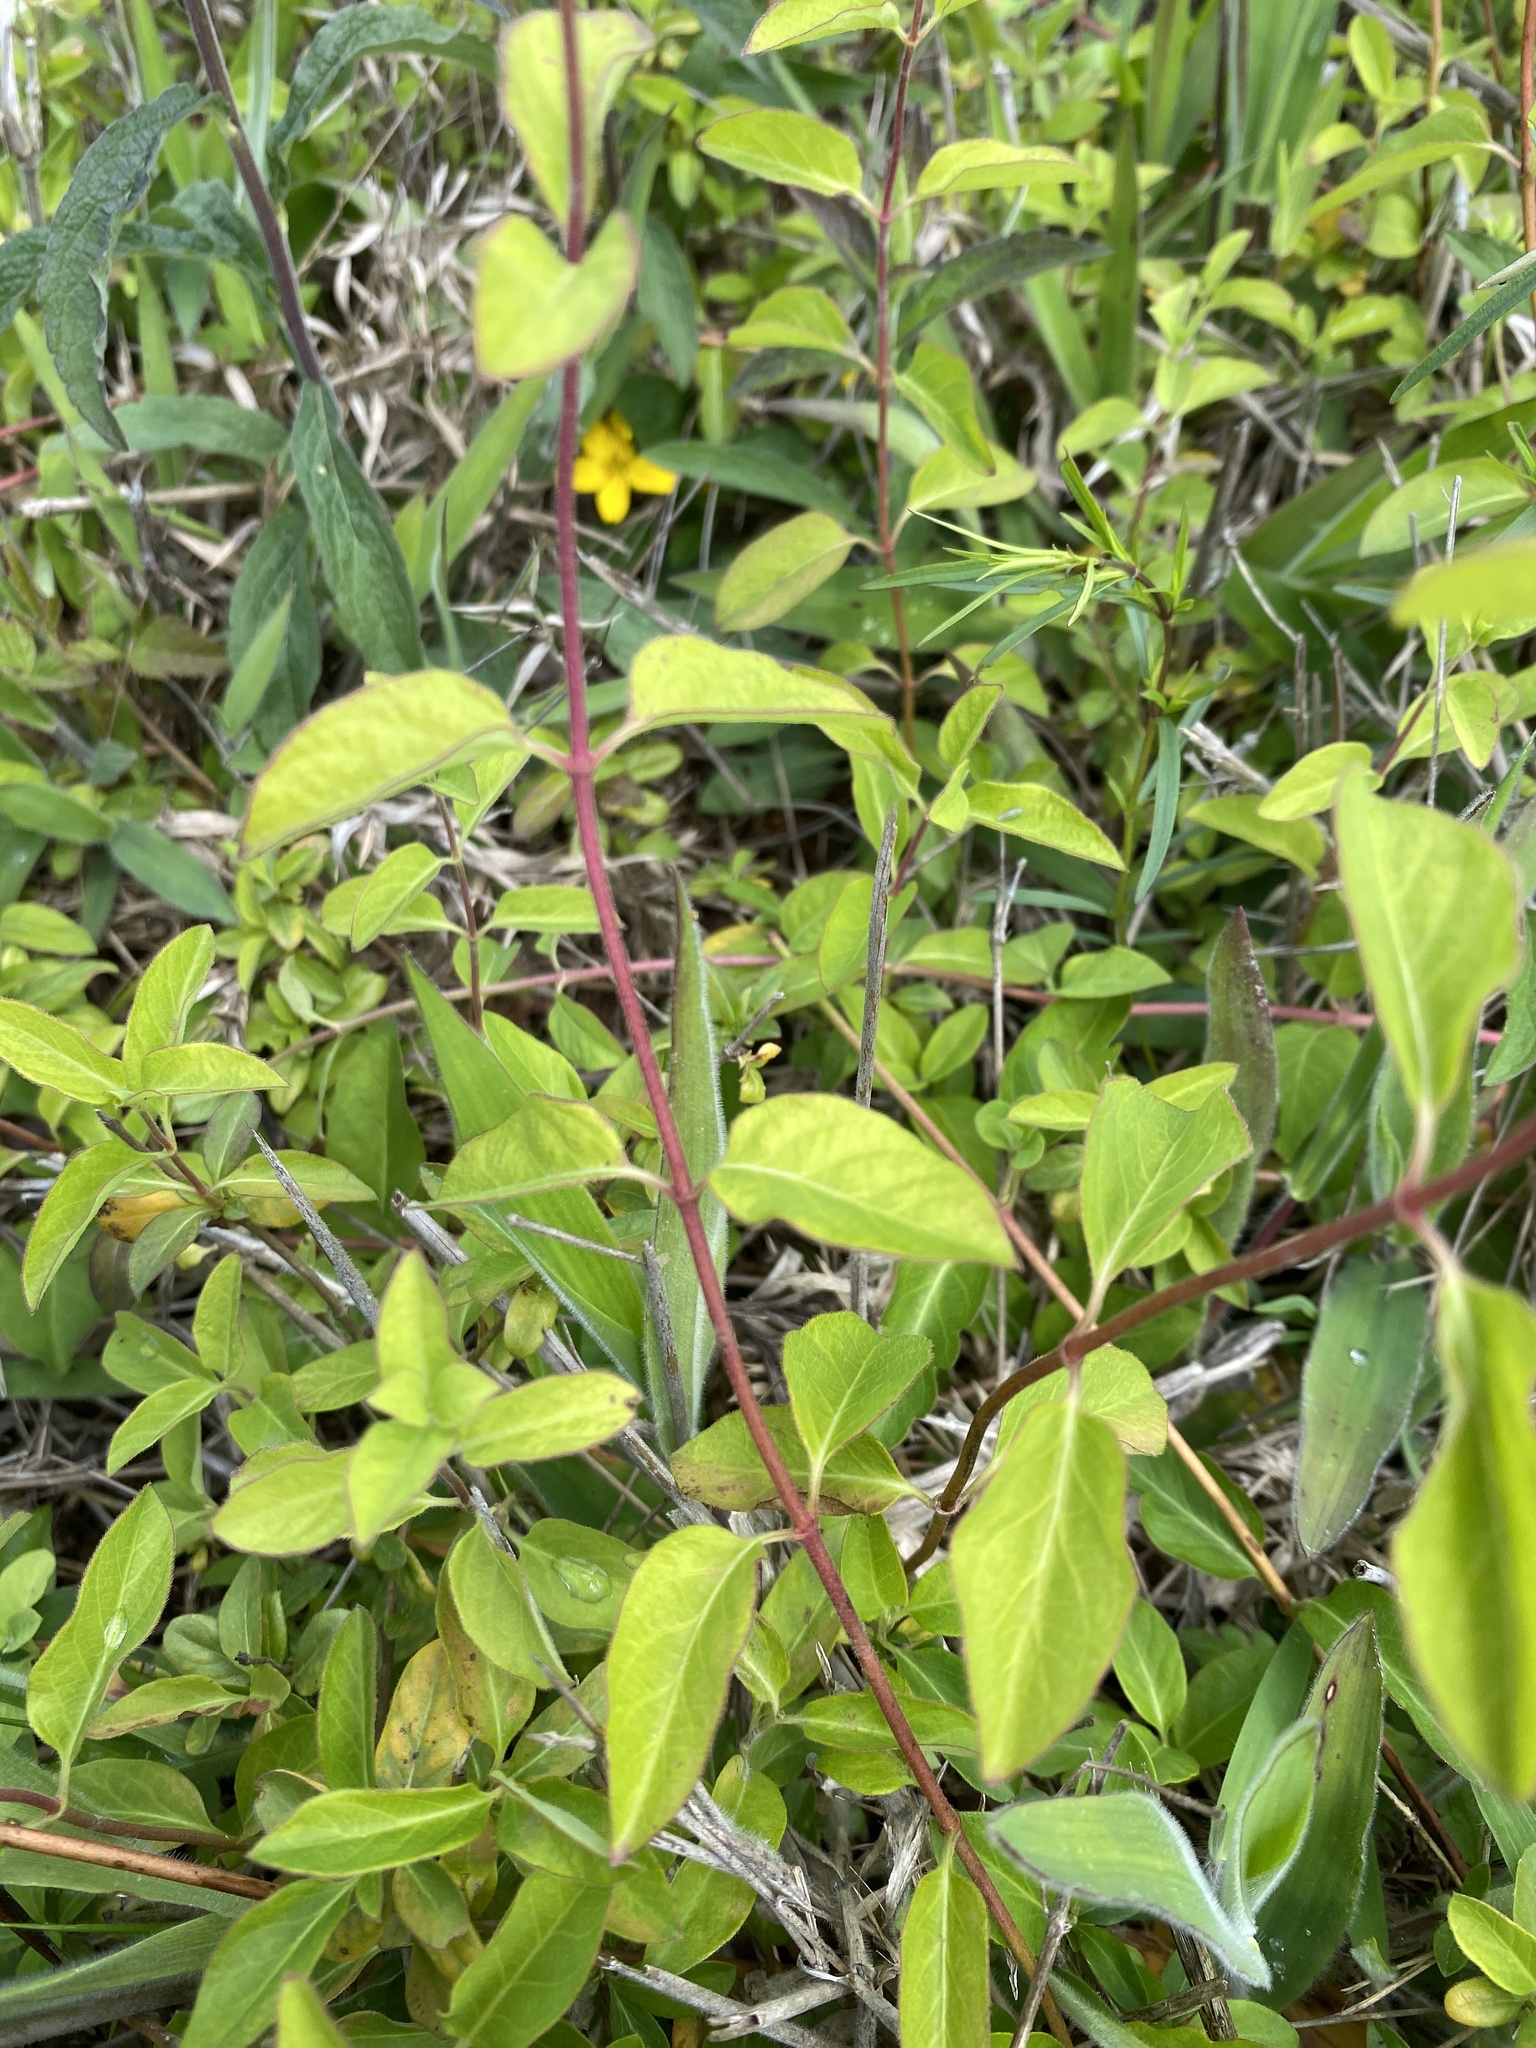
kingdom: Plantae
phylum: Tracheophyta
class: Magnoliopsida
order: Dipsacales
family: Caprifoliaceae
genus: Lonicera
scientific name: Lonicera japonica
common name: Japanese honeysuckle
